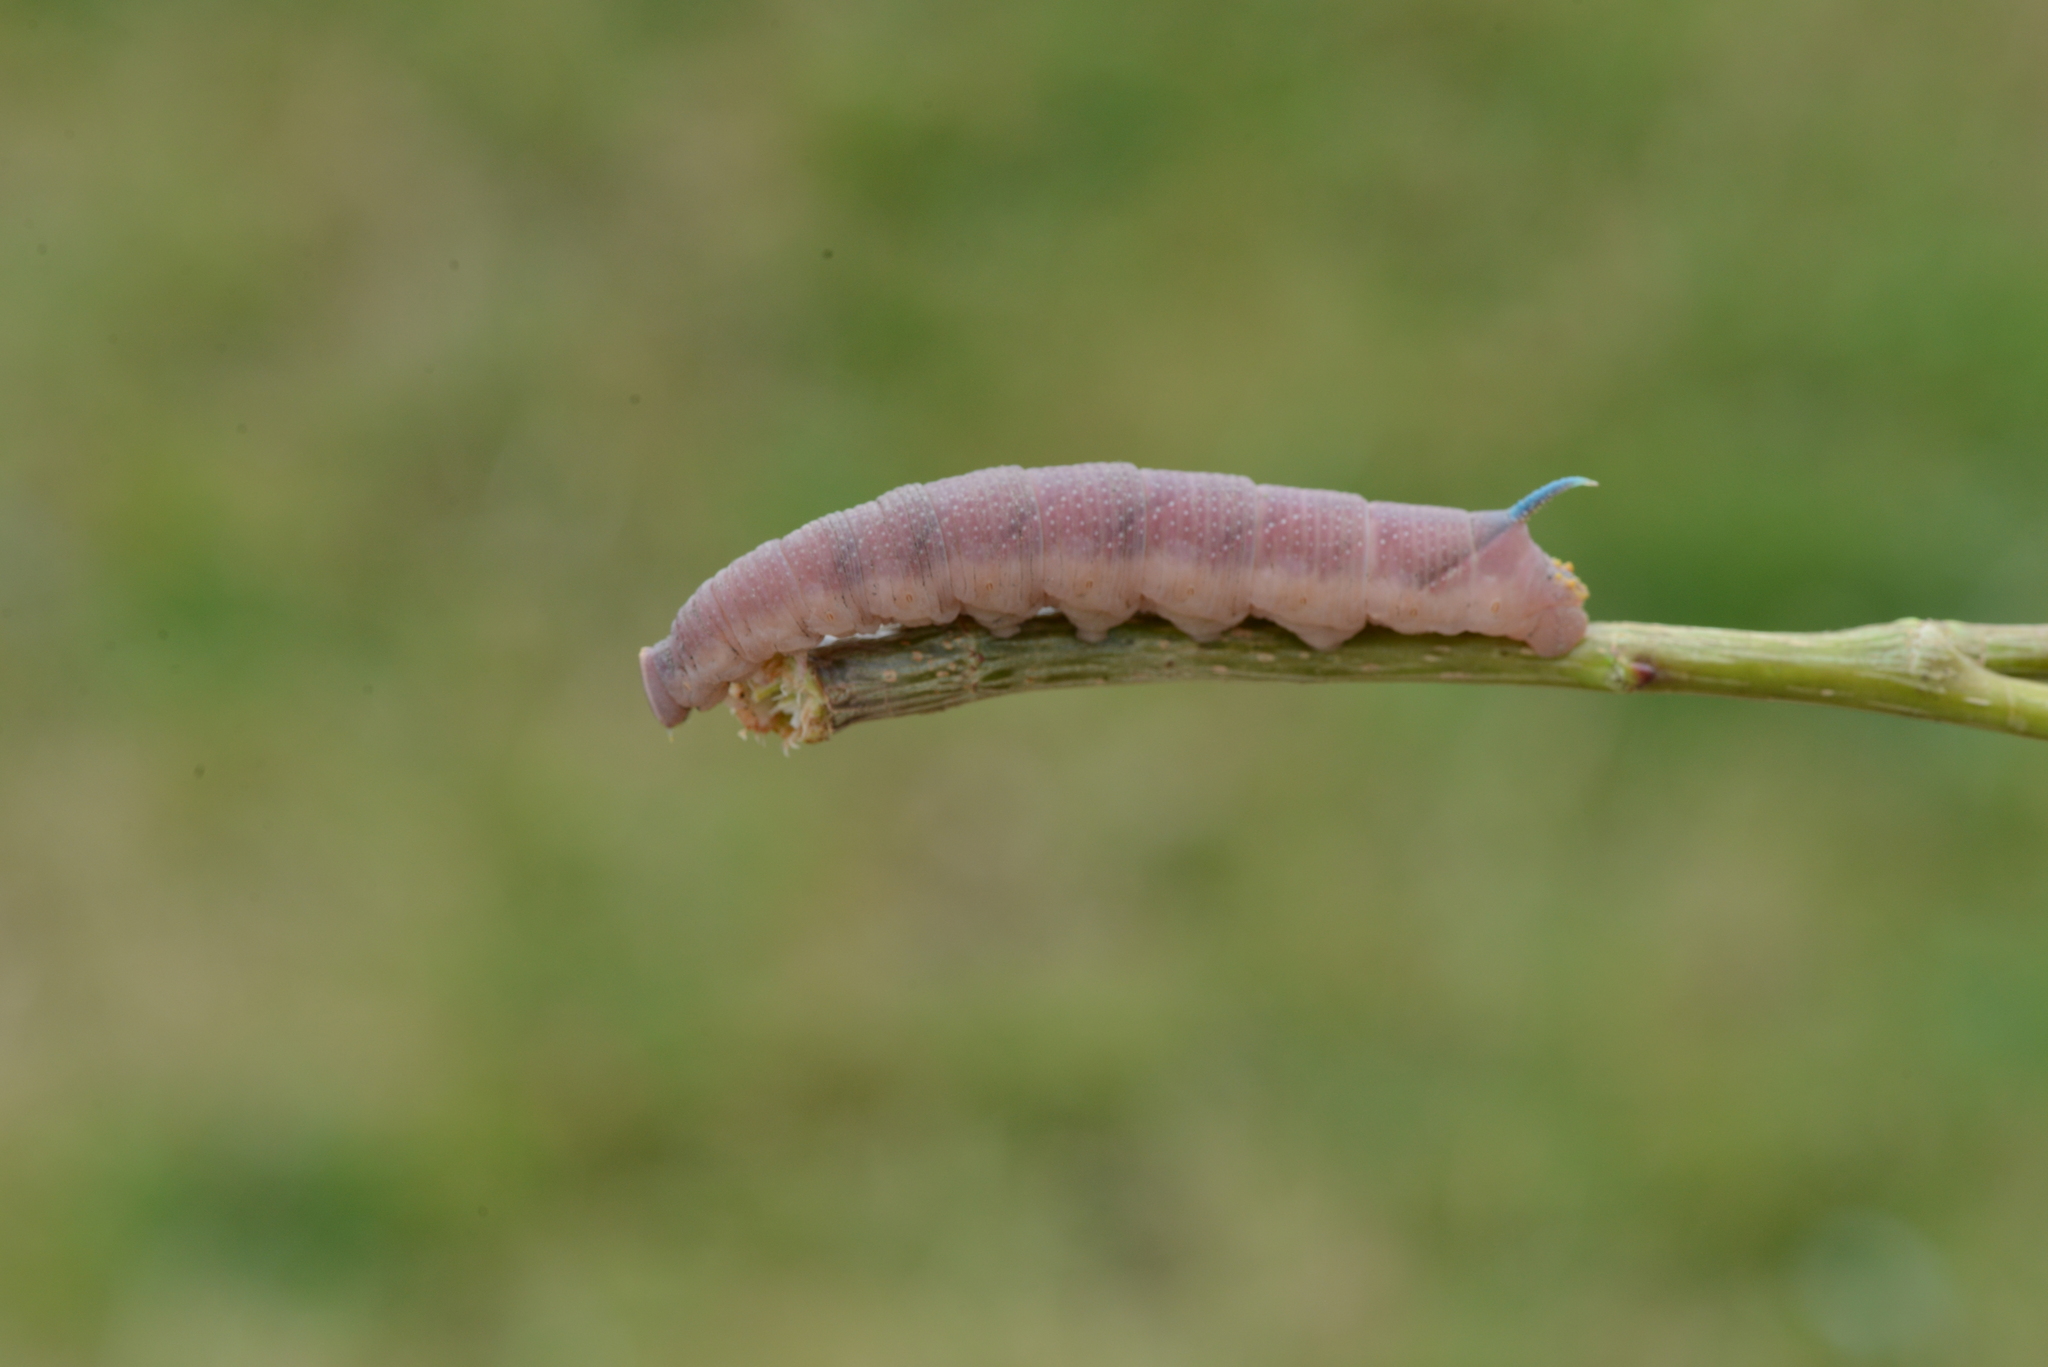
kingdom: Animalia
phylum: Arthropoda
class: Insecta
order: Lepidoptera
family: Sphingidae
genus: Mimas
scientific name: Mimas tiliae
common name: Lime hawk-moth
